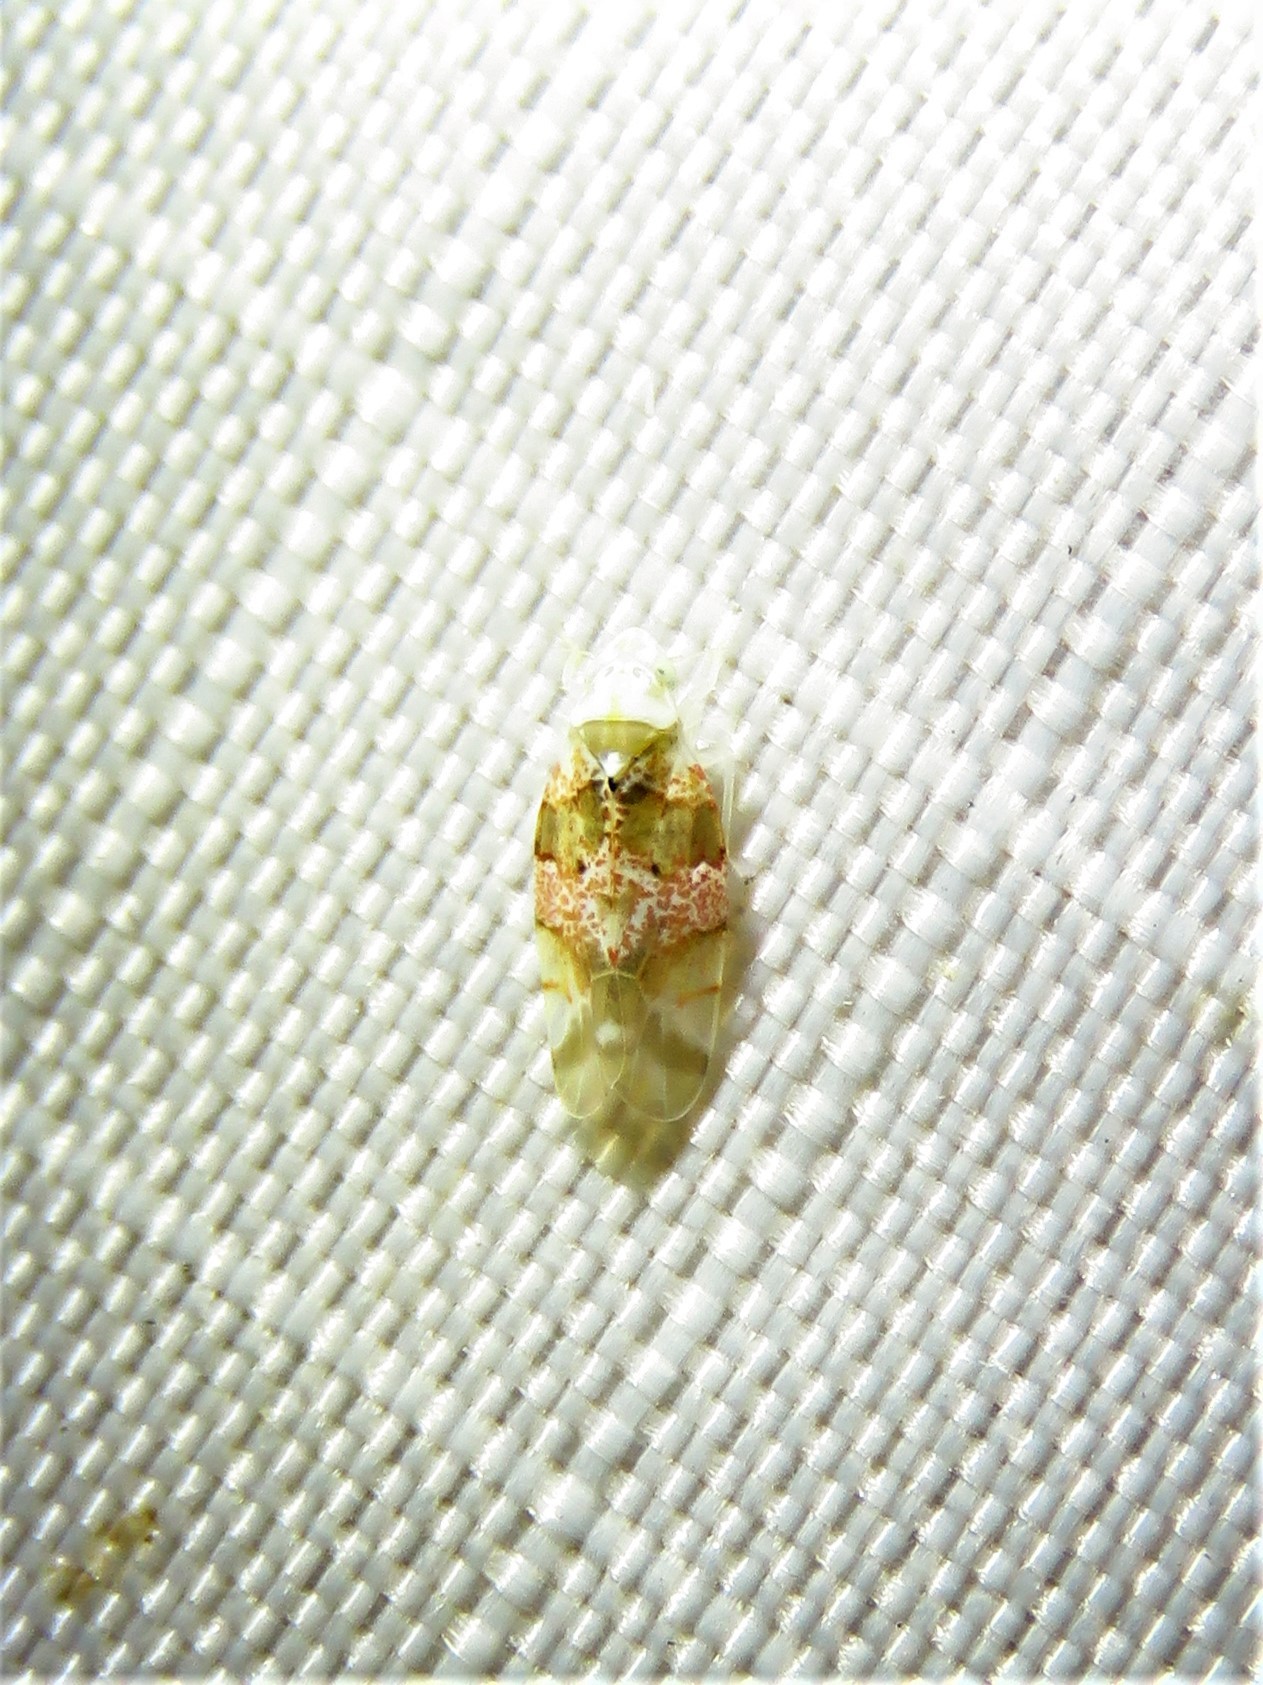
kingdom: Animalia
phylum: Arthropoda
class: Insecta
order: Hemiptera
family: Cicadellidae
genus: Hymetta
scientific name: Hymetta anthisma
